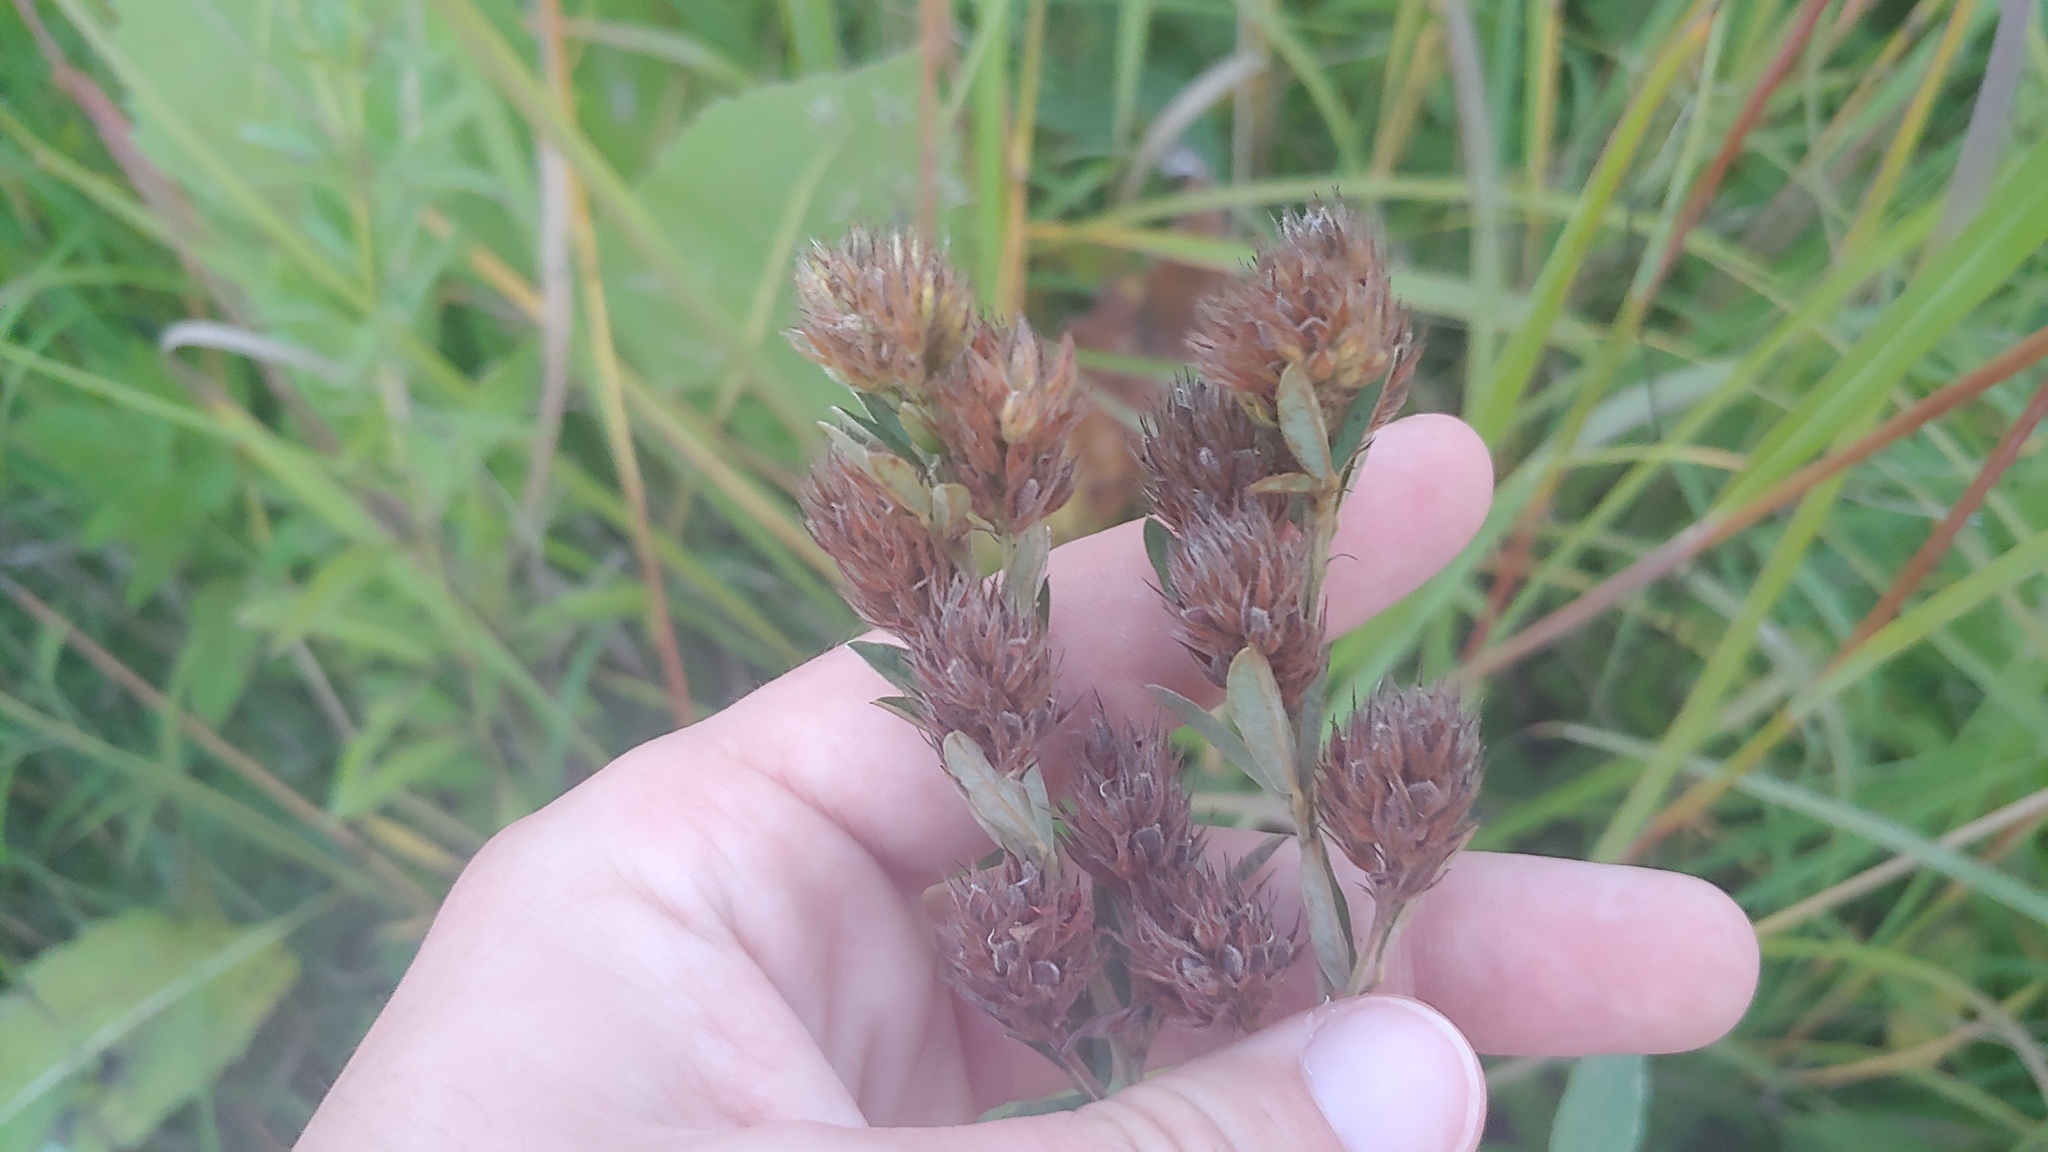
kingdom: Plantae
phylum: Tracheophyta
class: Magnoliopsida
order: Fabales
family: Fabaceae
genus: Lespedeza
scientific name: Lespedeza capitata
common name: Dusty clover
